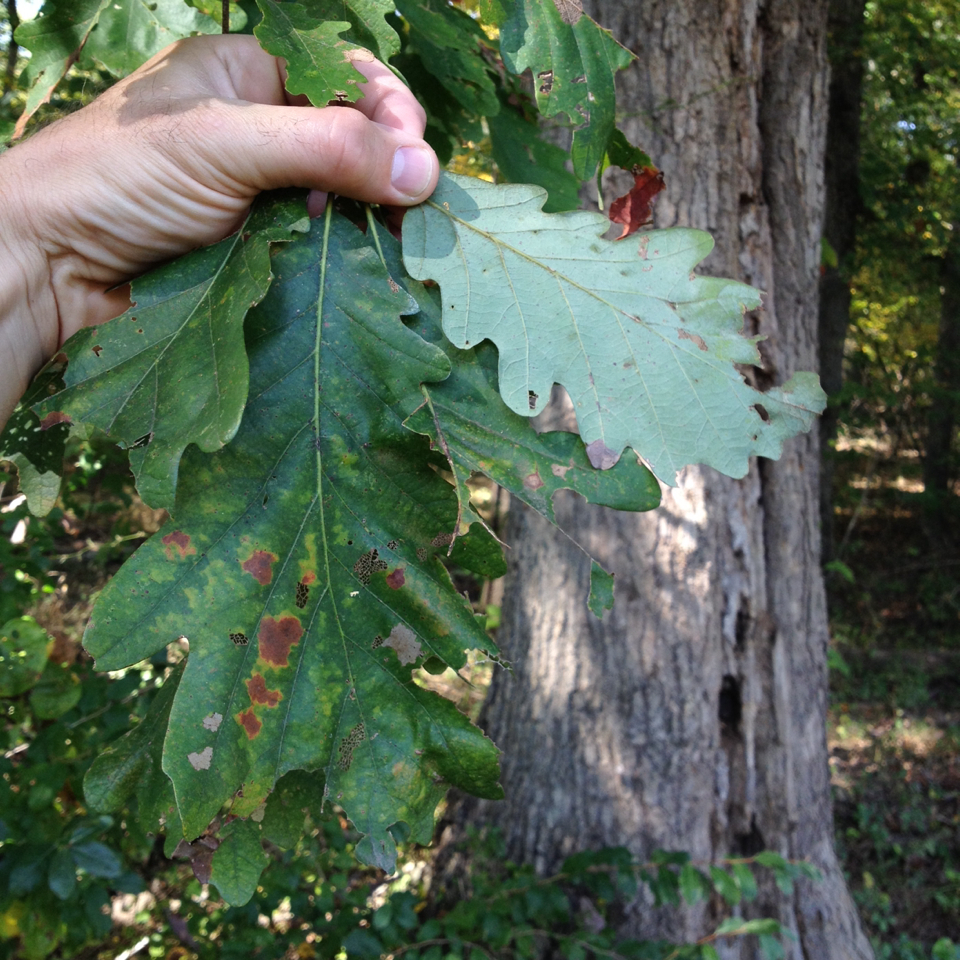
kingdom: Plantae
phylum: Tracheophyta
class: Magnoliopsida
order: Fagales
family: Fagaceae
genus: Quercus
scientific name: Quercus alba
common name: White oak
